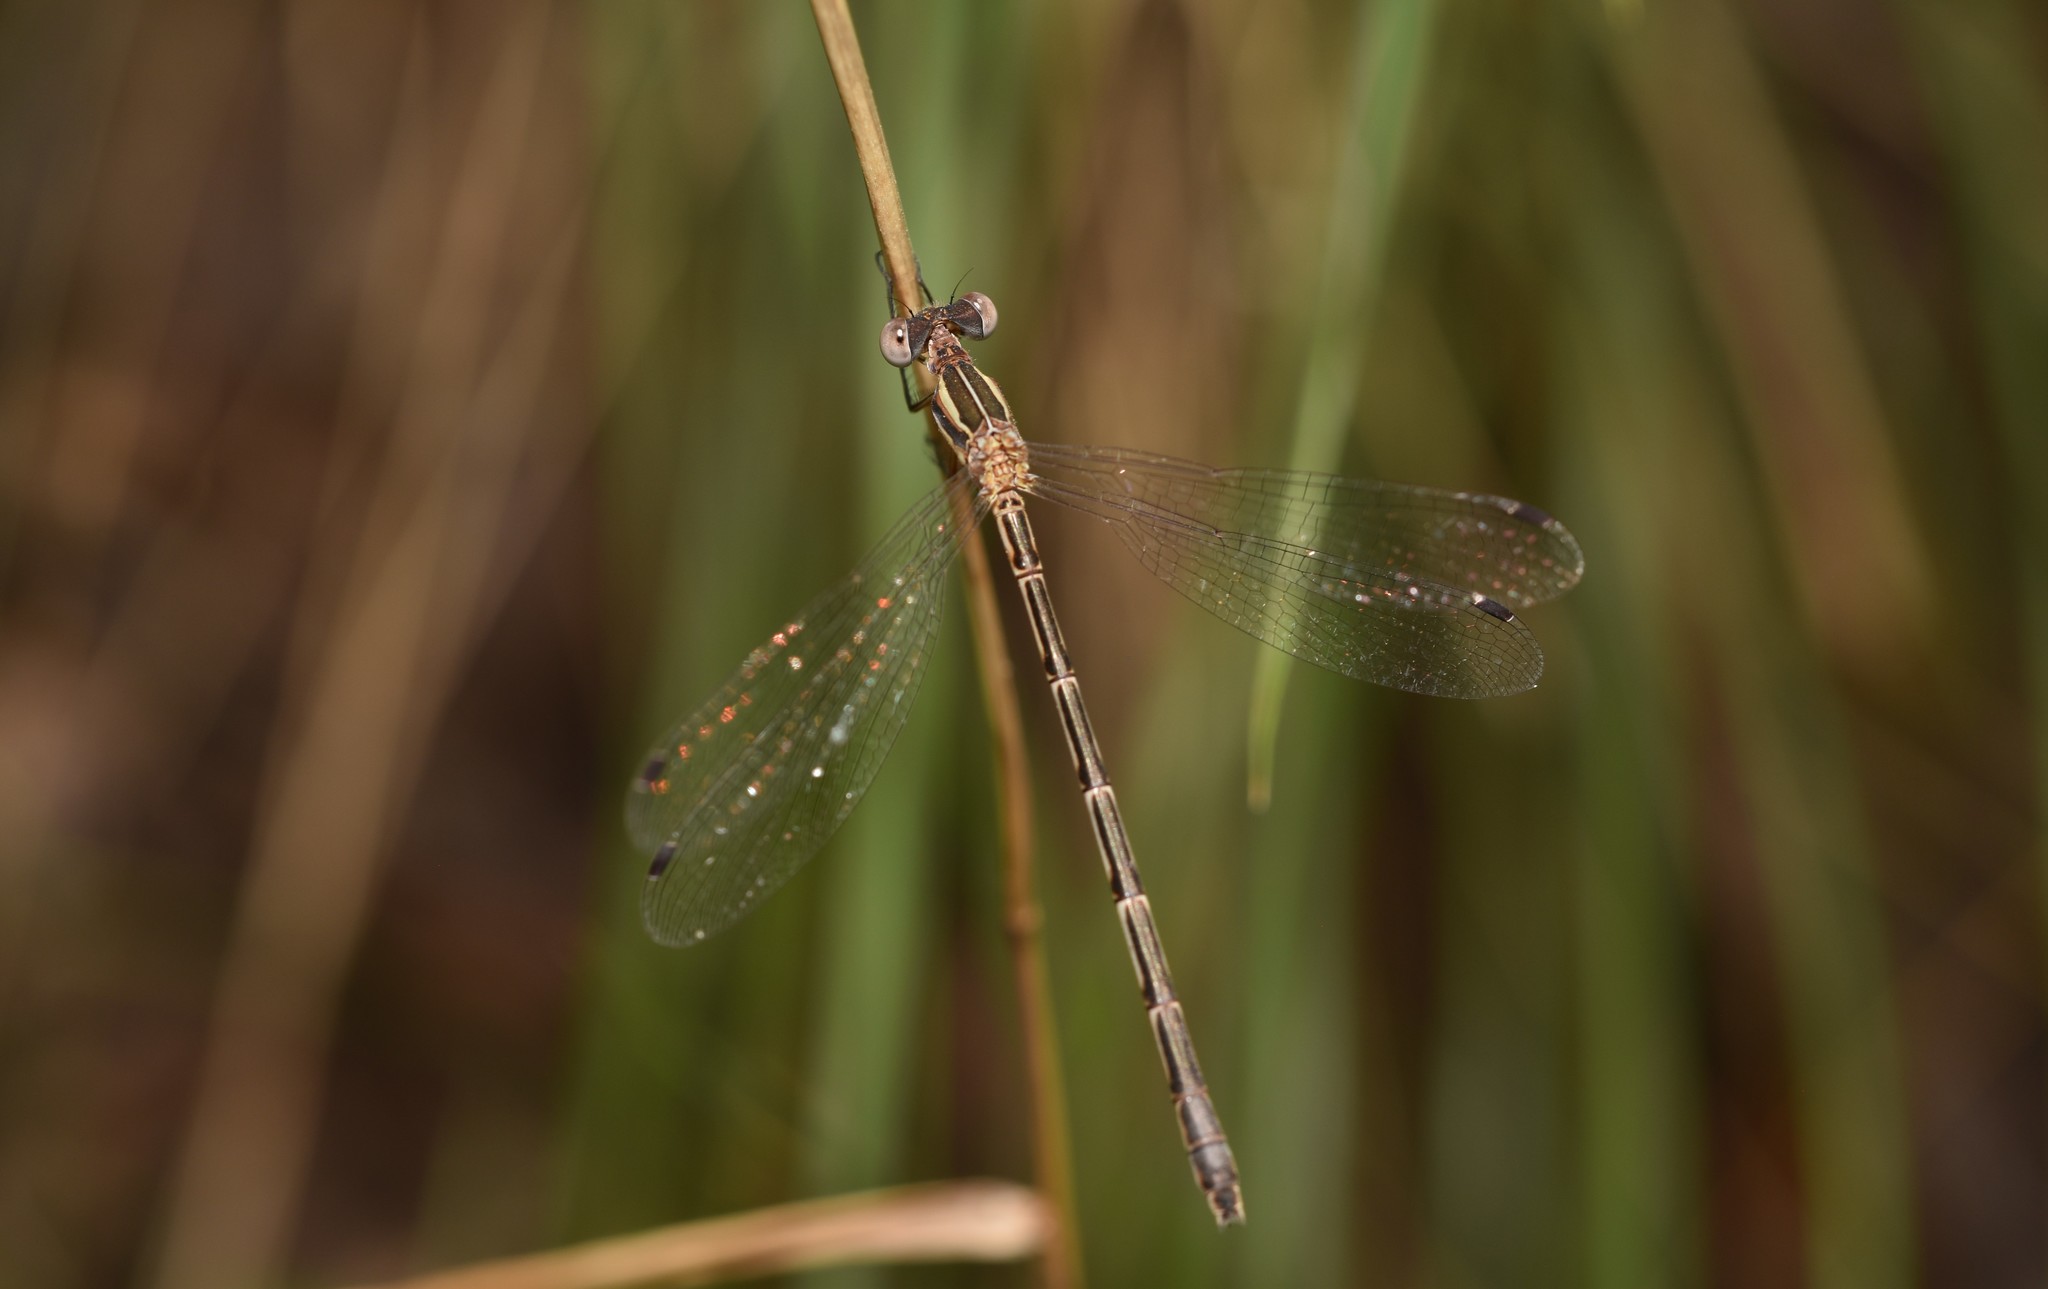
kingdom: Animalia
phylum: Arthropoda
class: Insecta
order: Odonata
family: Lestidae
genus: Lestes
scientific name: Lestes australis
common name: Southern spreadwing
